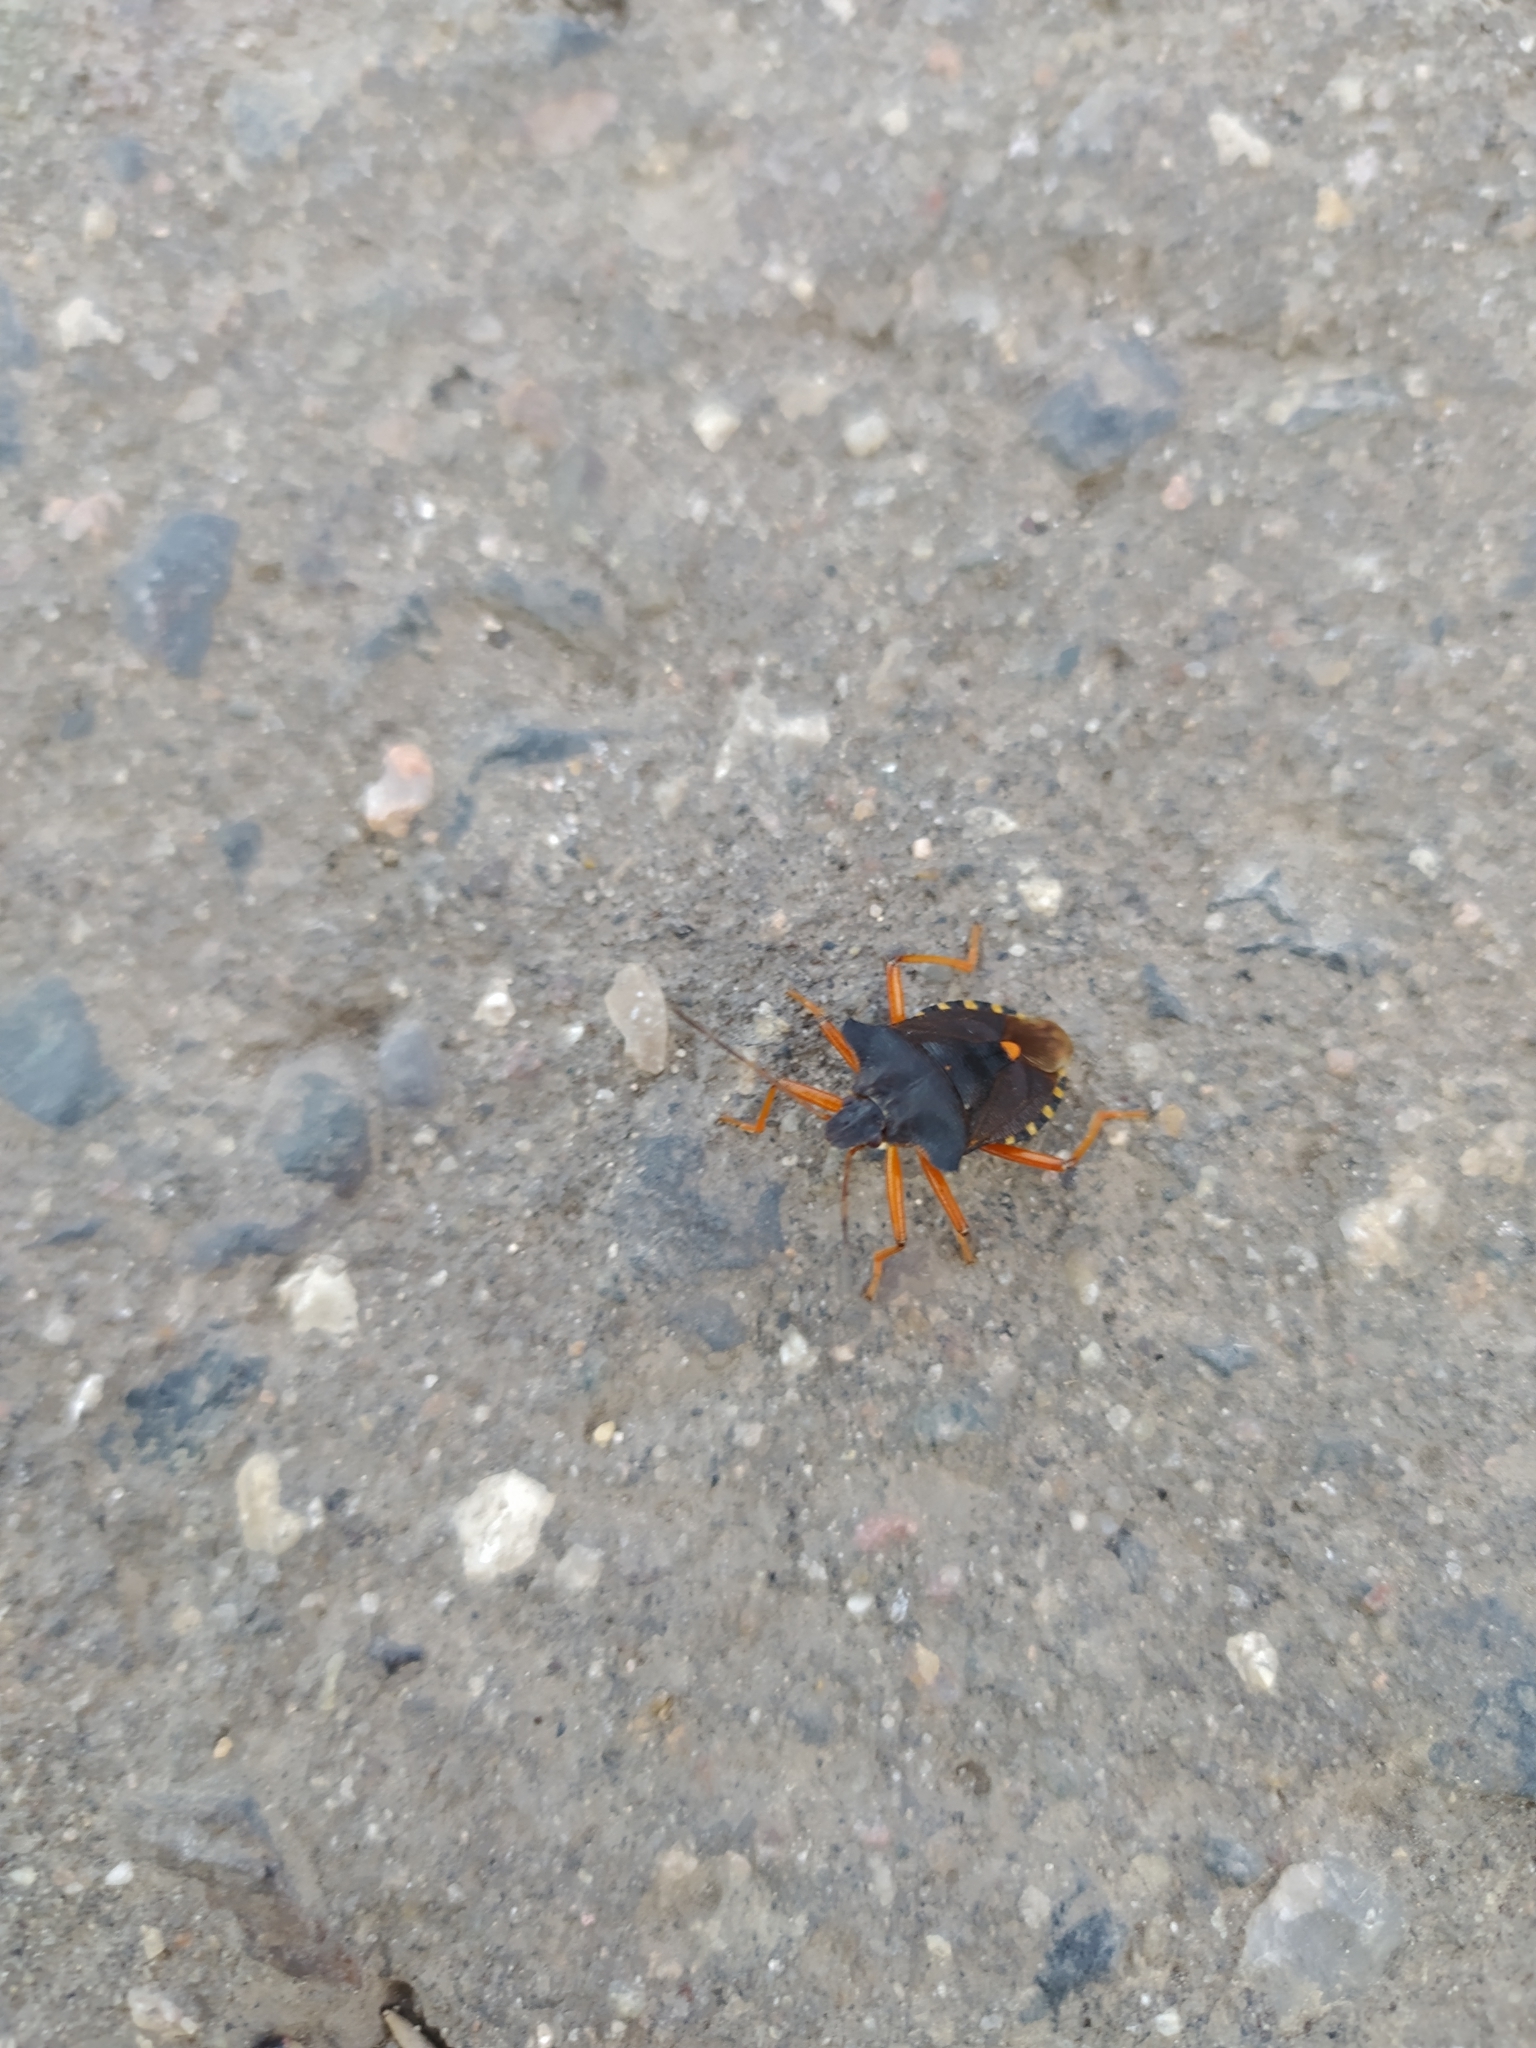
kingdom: Animalia
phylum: Arthropoda
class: Insecta
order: Hemiptera
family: Pentatomidae
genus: Pentatoma
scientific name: Pentatoma rufipes
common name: Forest bug
